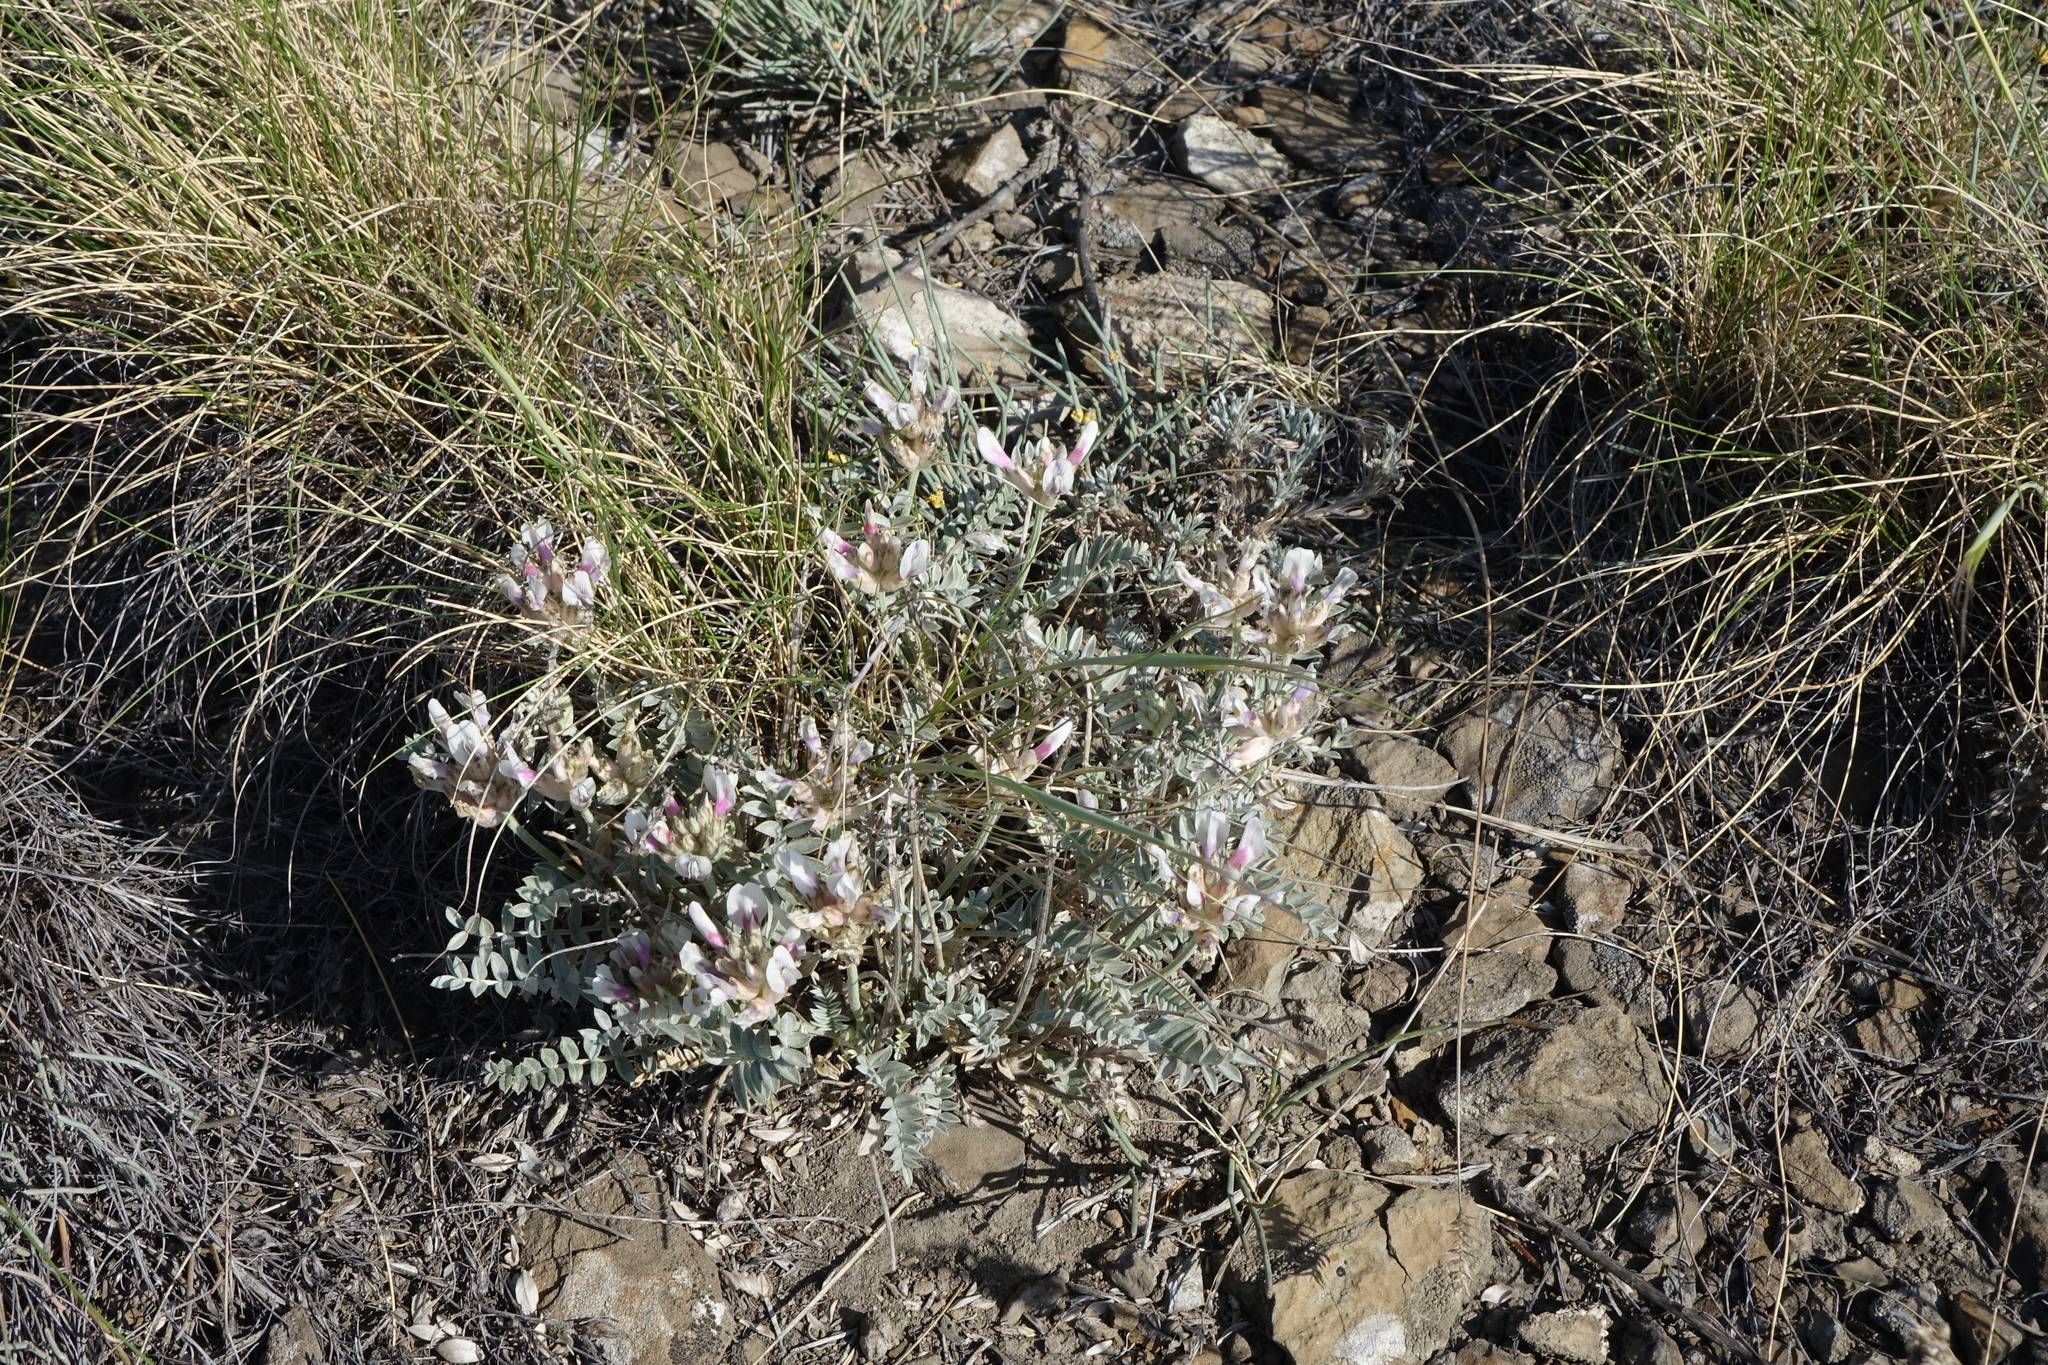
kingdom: Plantae
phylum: Tracheophyta
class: Magnoliopsida
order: Fabales
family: Fabaceae
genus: Astragalus
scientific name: Astragalus dilutus
